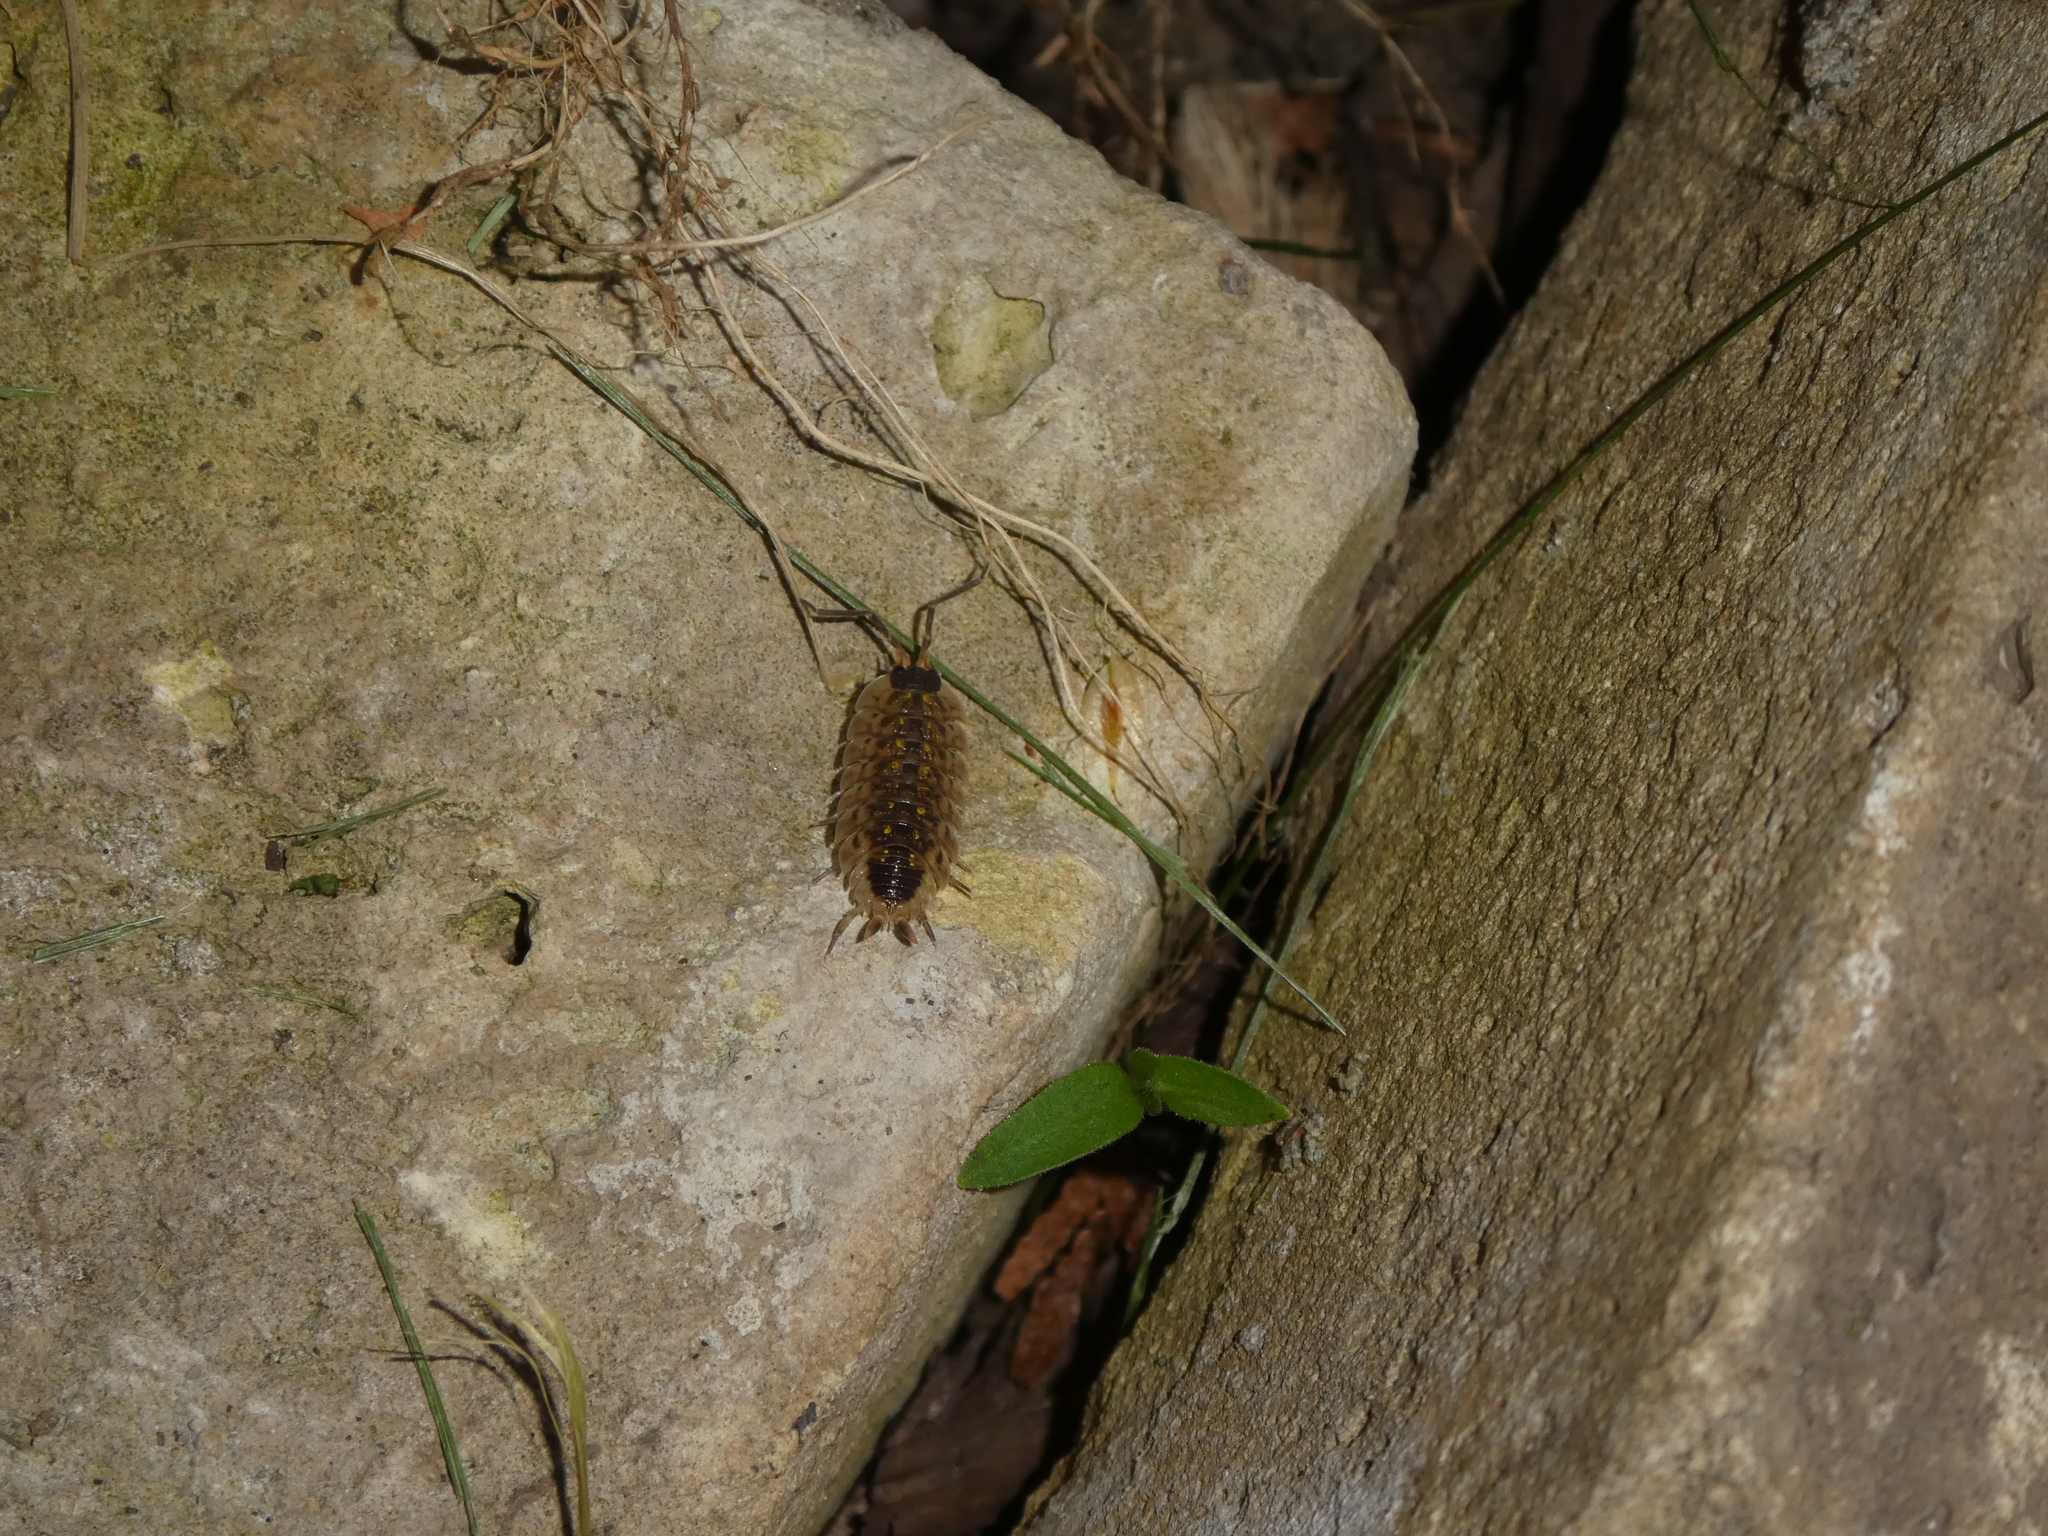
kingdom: Animalia
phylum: Arthropoda
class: Malacostraca
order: Isopoda
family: Porcellionidae
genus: Porcellio
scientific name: Porcellio spinicornis
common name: Painted woodlouse
